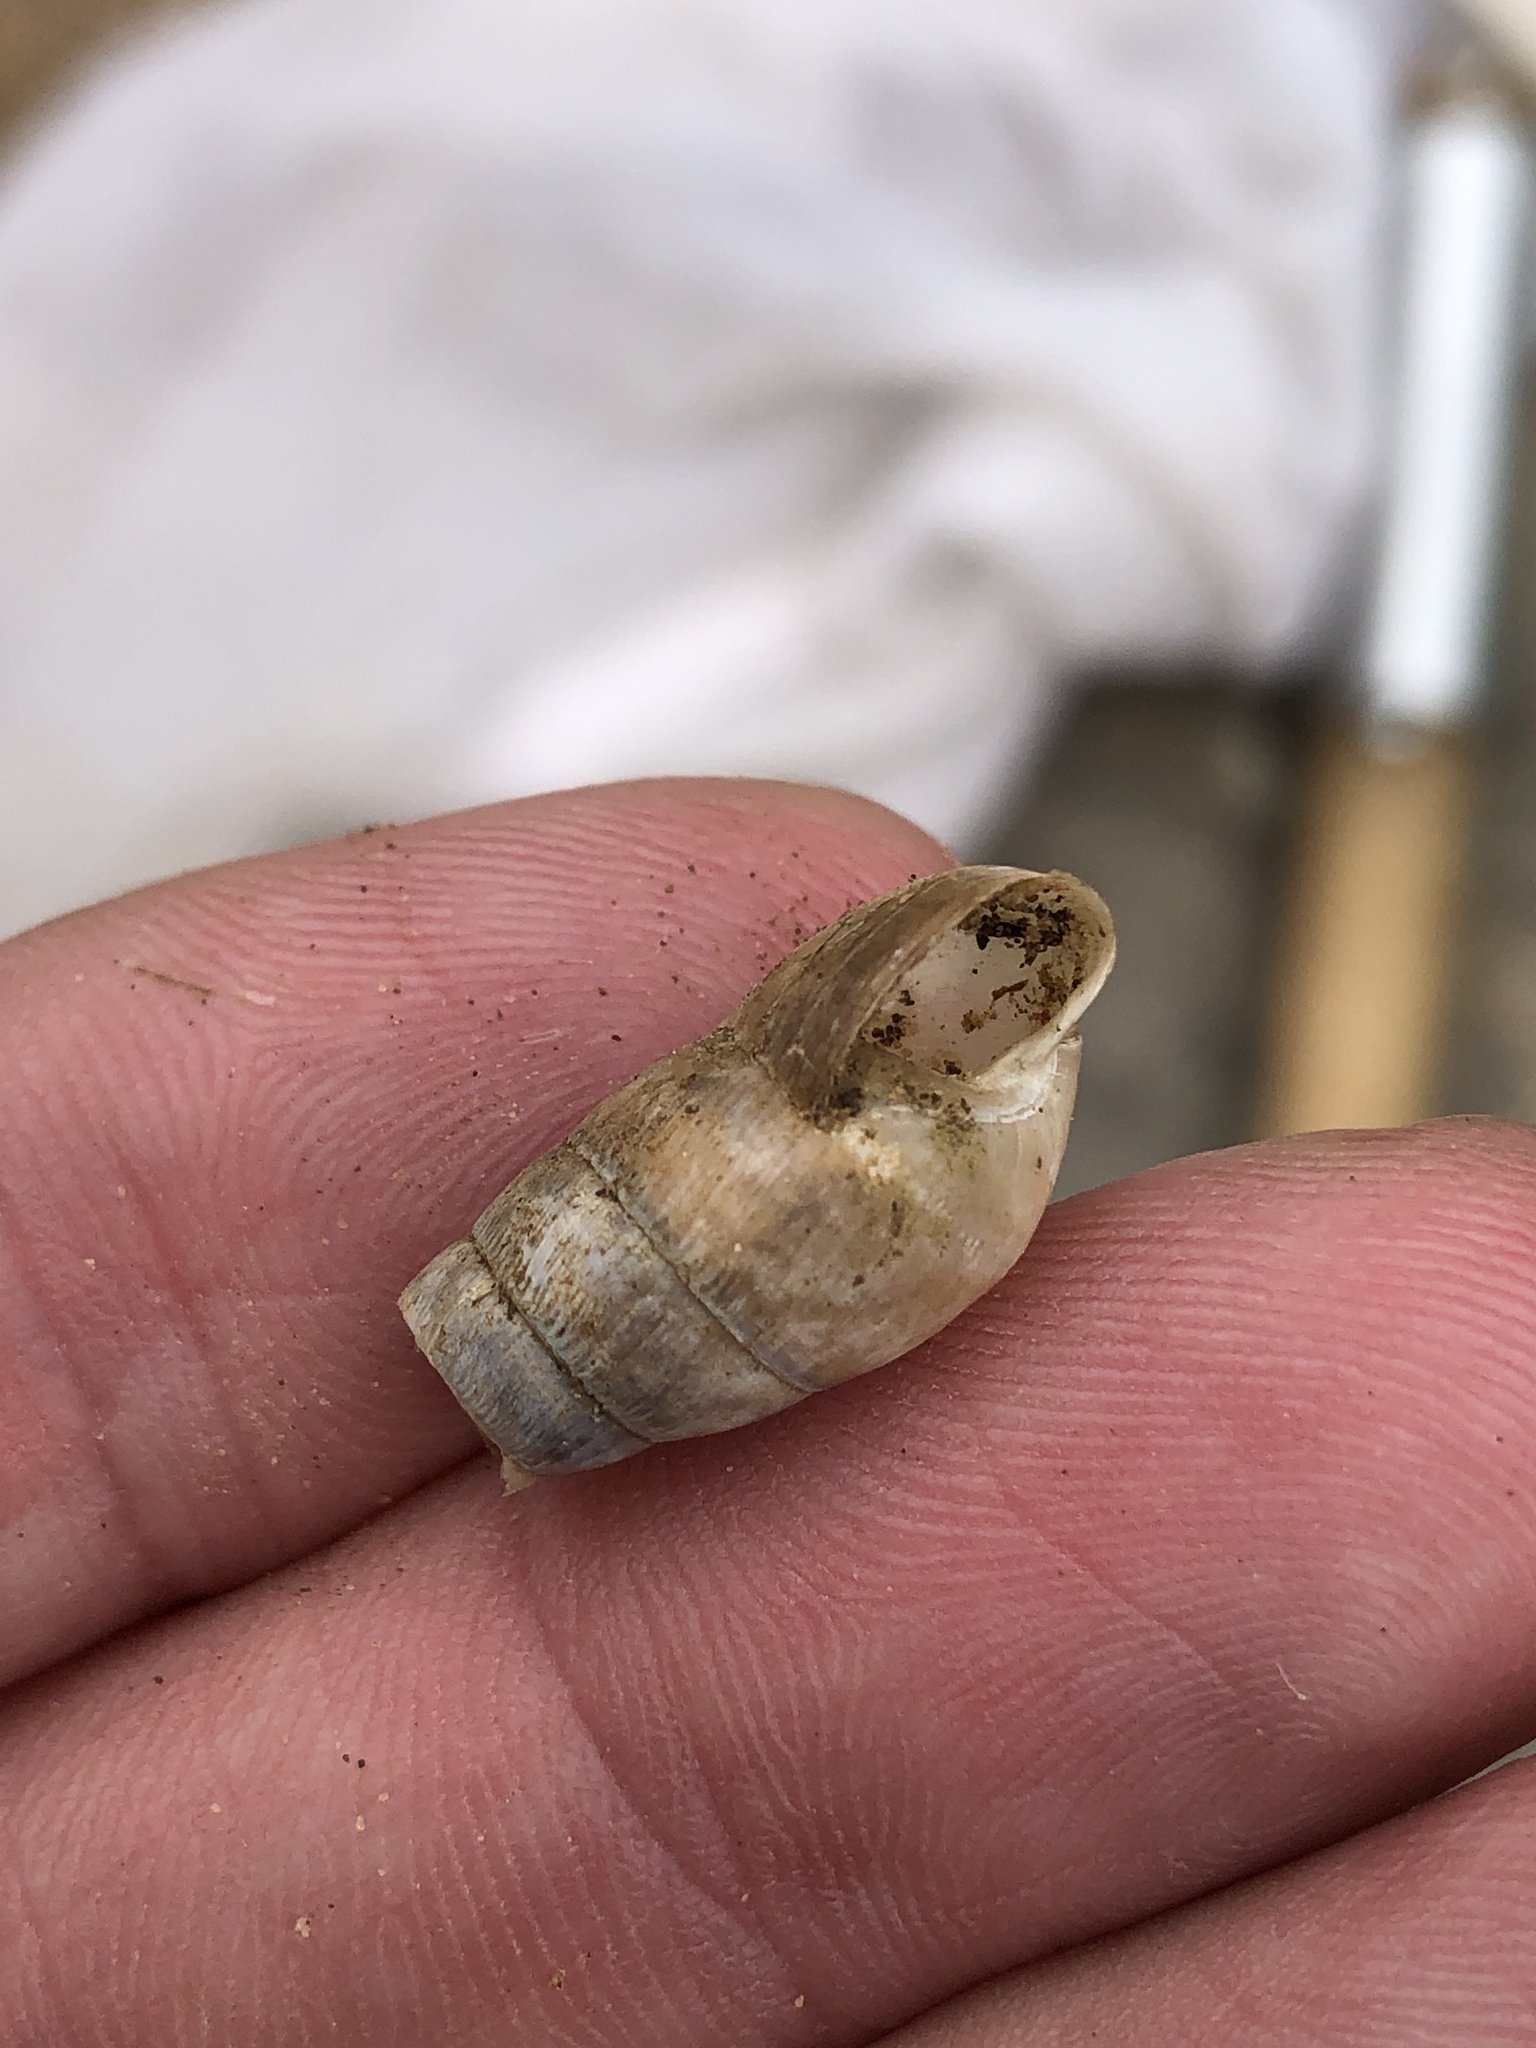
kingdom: Animalia
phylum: Mollusca
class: Gastropoda
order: Stylommatophora
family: Achatinidae
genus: Rumina
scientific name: Rumina decollata
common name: Decollate snail
